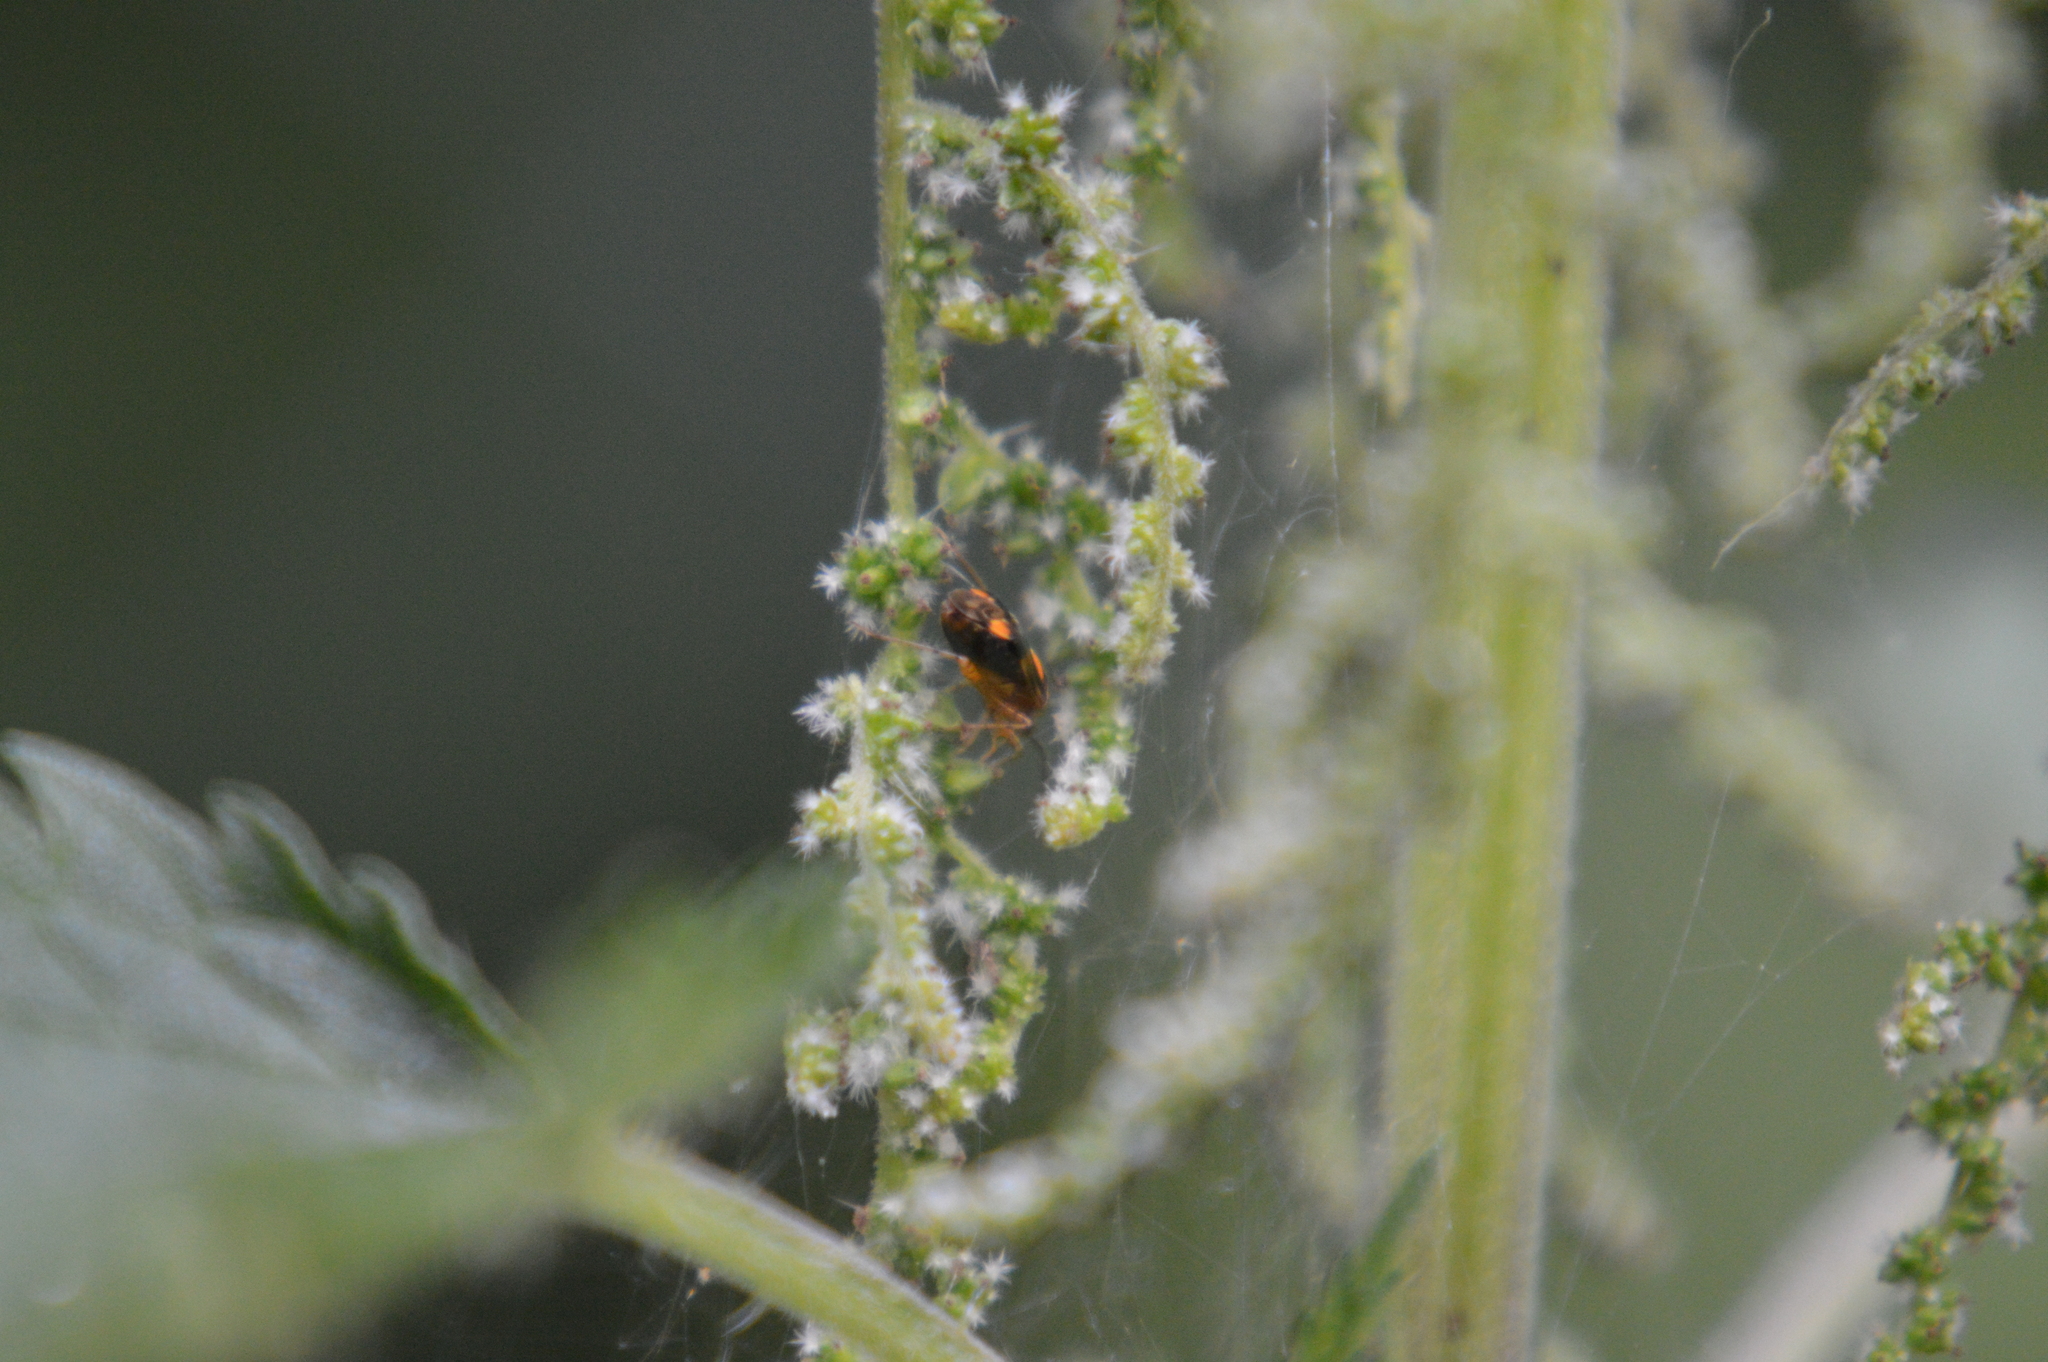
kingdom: Animalia
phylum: Arthropoda
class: Insecta
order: Hemiptera
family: Miridae
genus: Liocoris
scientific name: Liocoris tripustulatus
